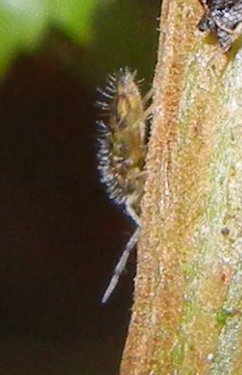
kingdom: Animalia
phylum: Arthropoda
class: Collembola
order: Entomobryomorpha
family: Entomobryidae
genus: Entomobrya
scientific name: Entomobrya nivalis
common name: Cosmopolitan springtail
